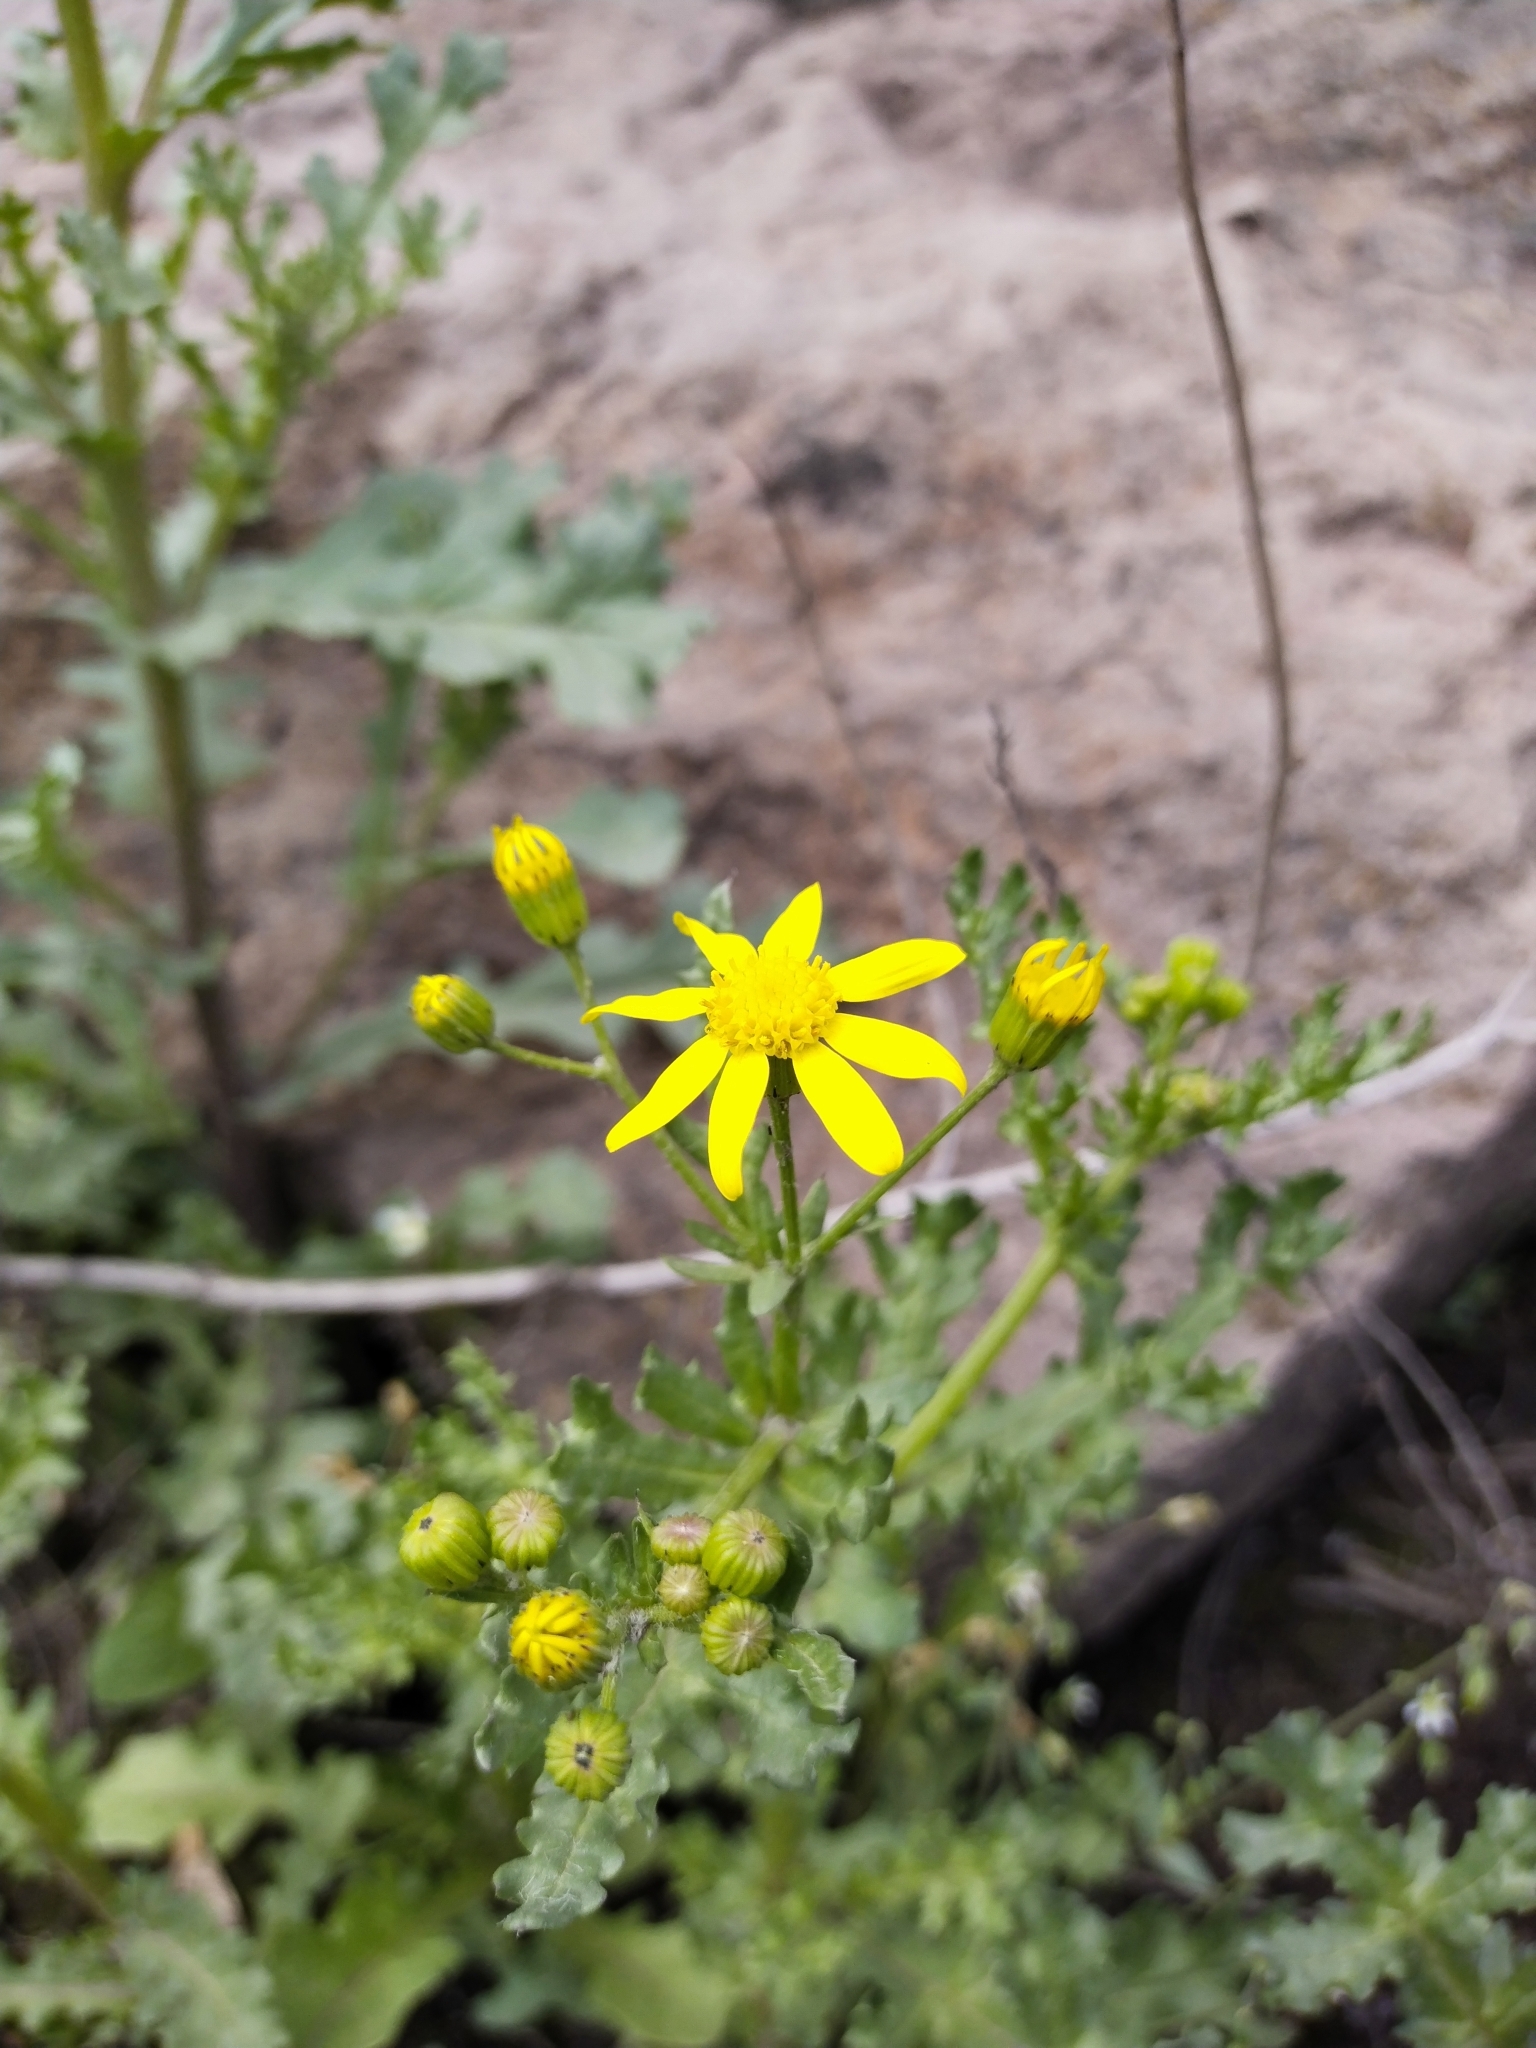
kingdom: Plantae
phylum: Tracheophyta
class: Magnoliopsida
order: Asterales
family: Asteraceae
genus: Senecio
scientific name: Senecio vernalis
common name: Eastern groundsel
